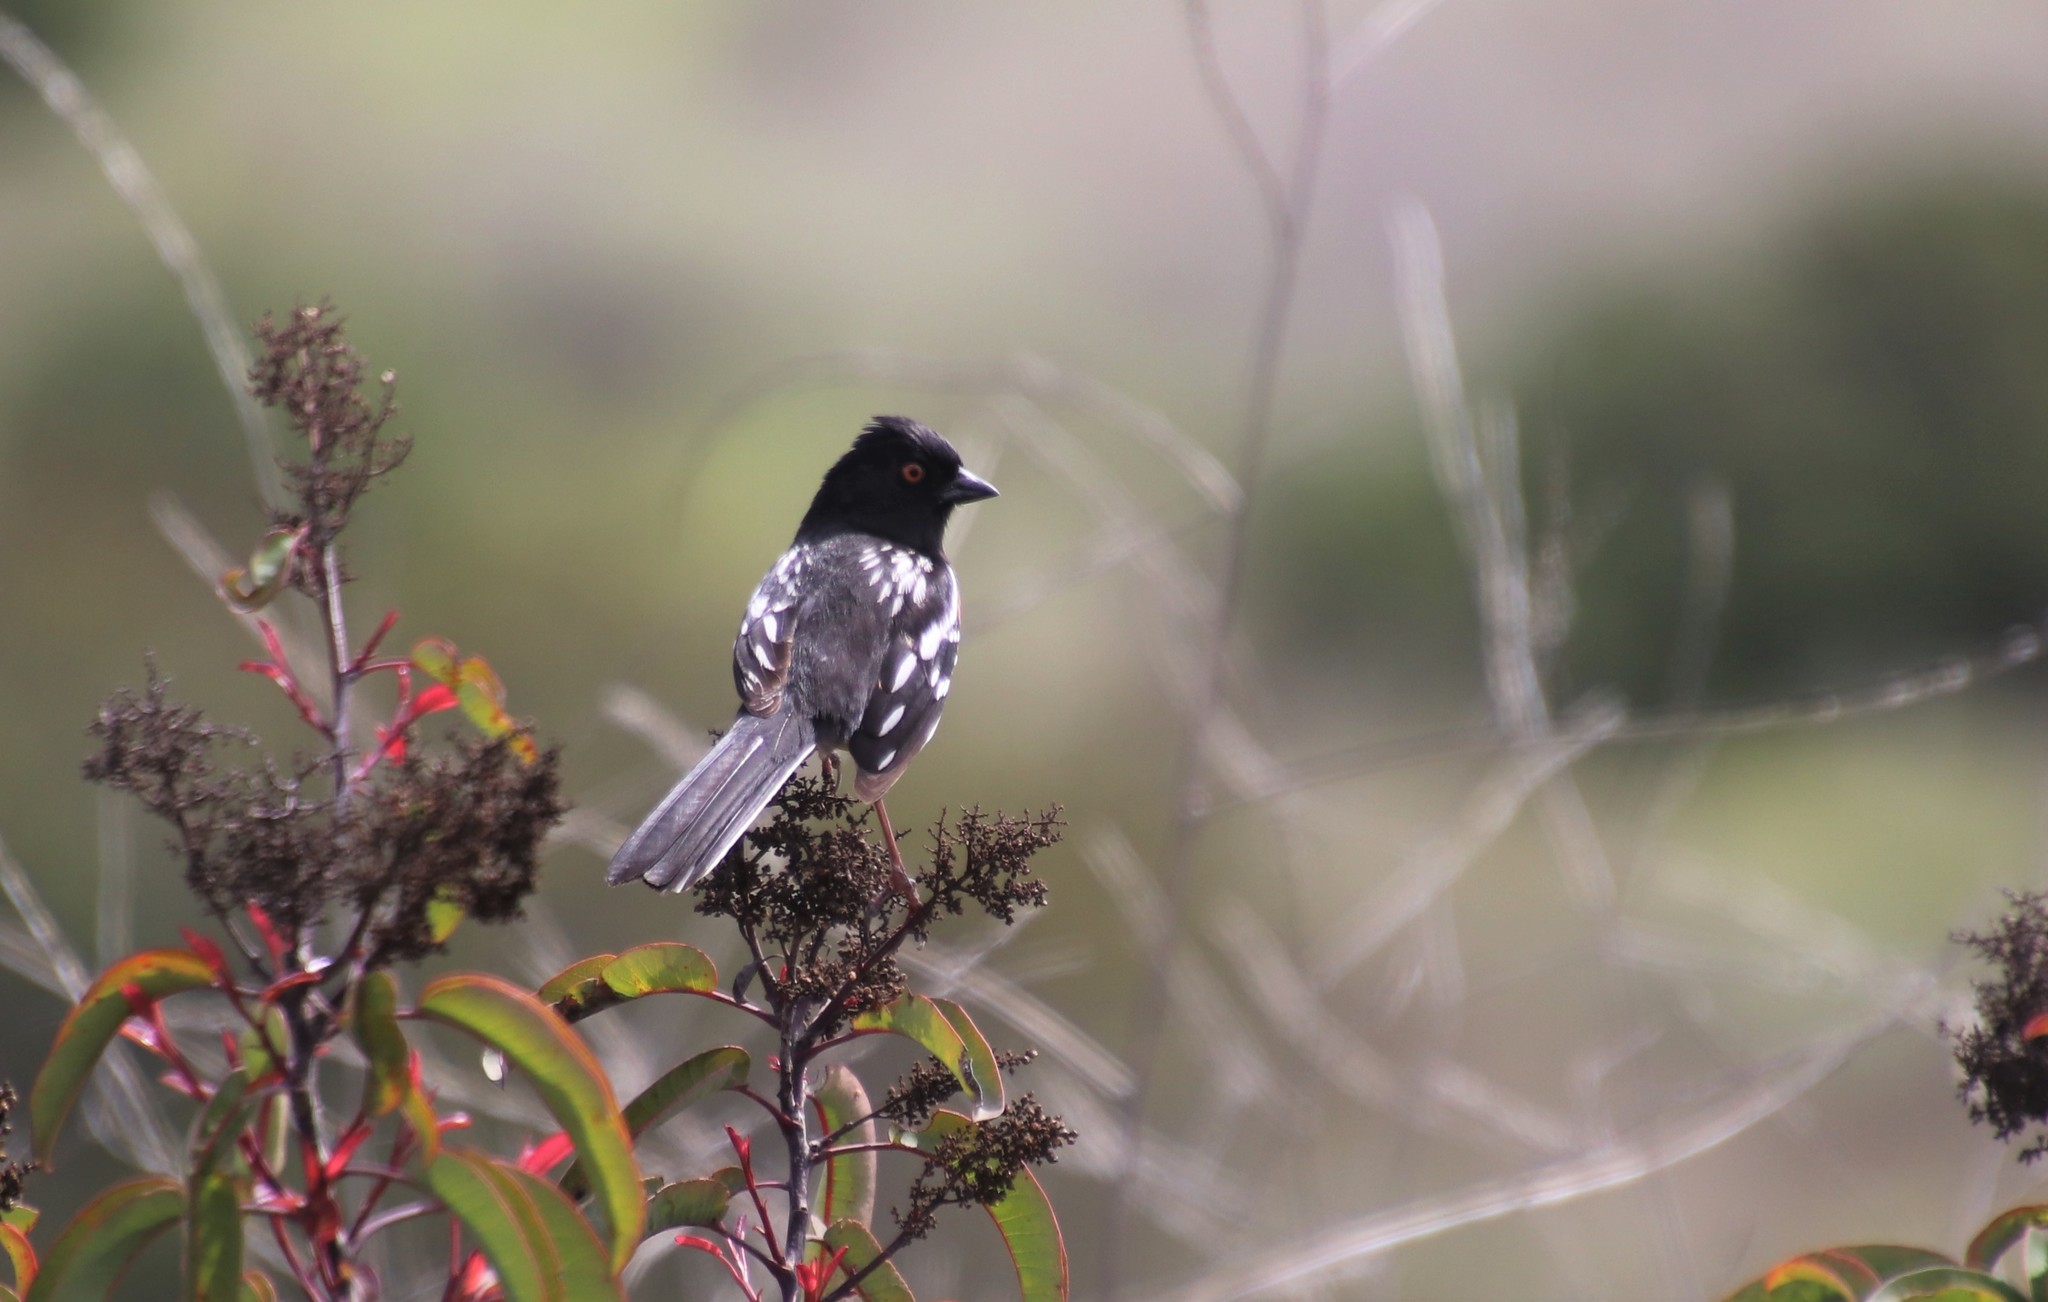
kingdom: Animalia
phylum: Chordata
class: Aves
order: Passeriformes
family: Passerellidae
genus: Pipilo
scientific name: Pipilo maculatus
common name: Spotted towhee
